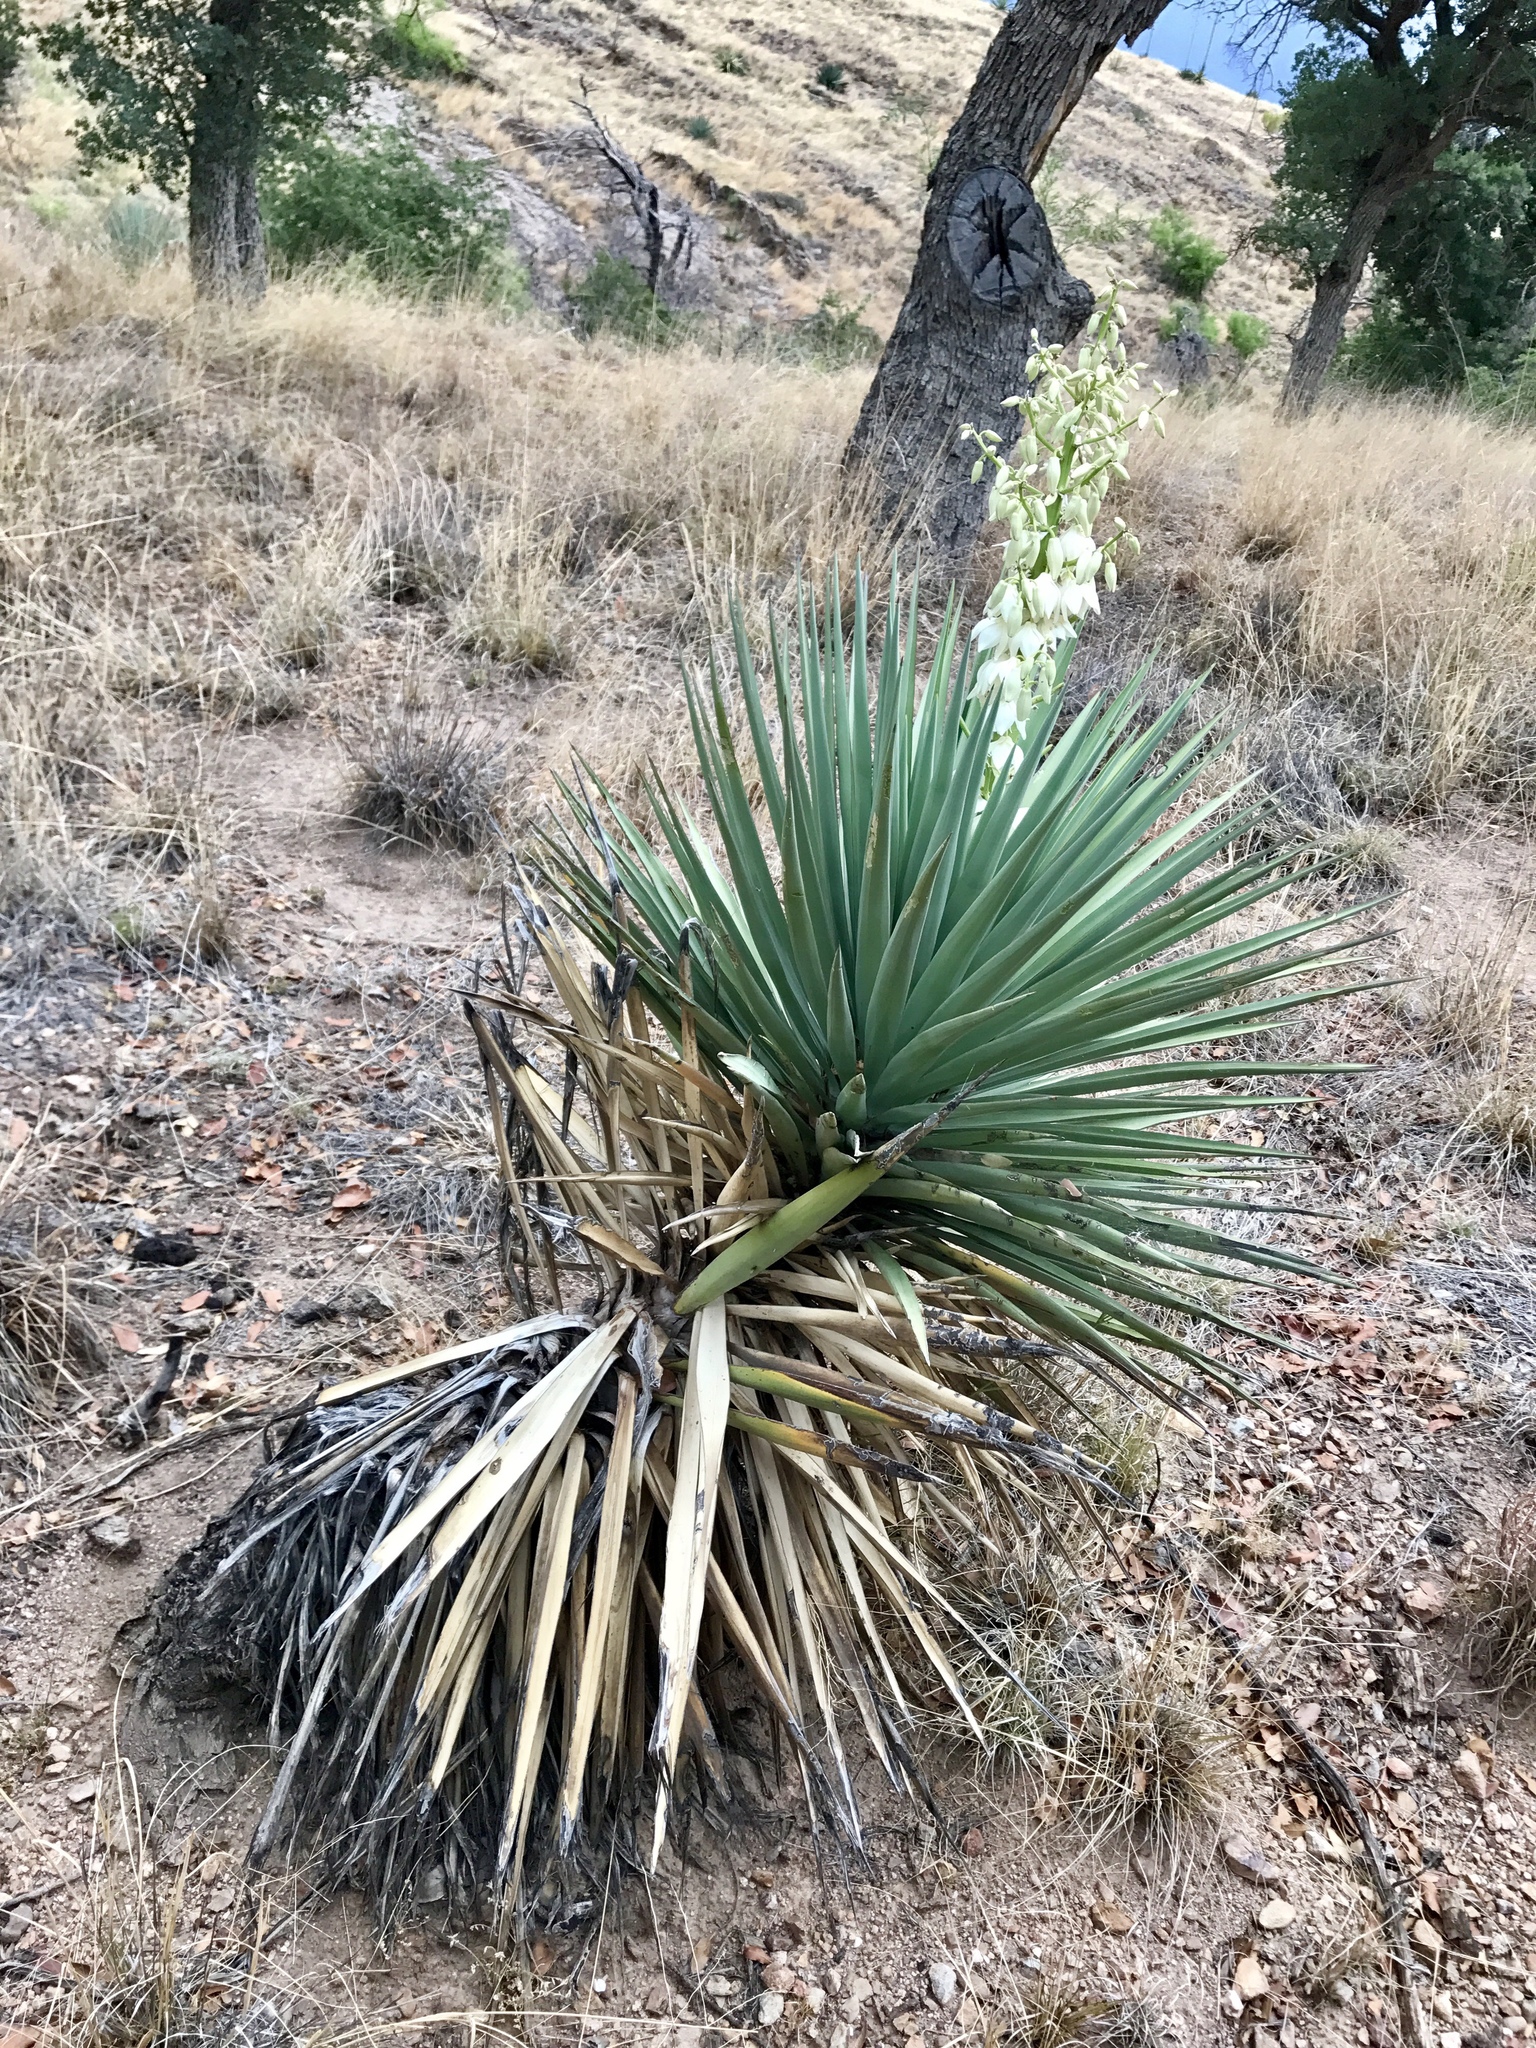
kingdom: Plantae
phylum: Tracheophyta
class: Liliopsida
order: Asparagales
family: Asparagaceae
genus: Yucca
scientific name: Yucca schottii
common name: Hoary yucca
